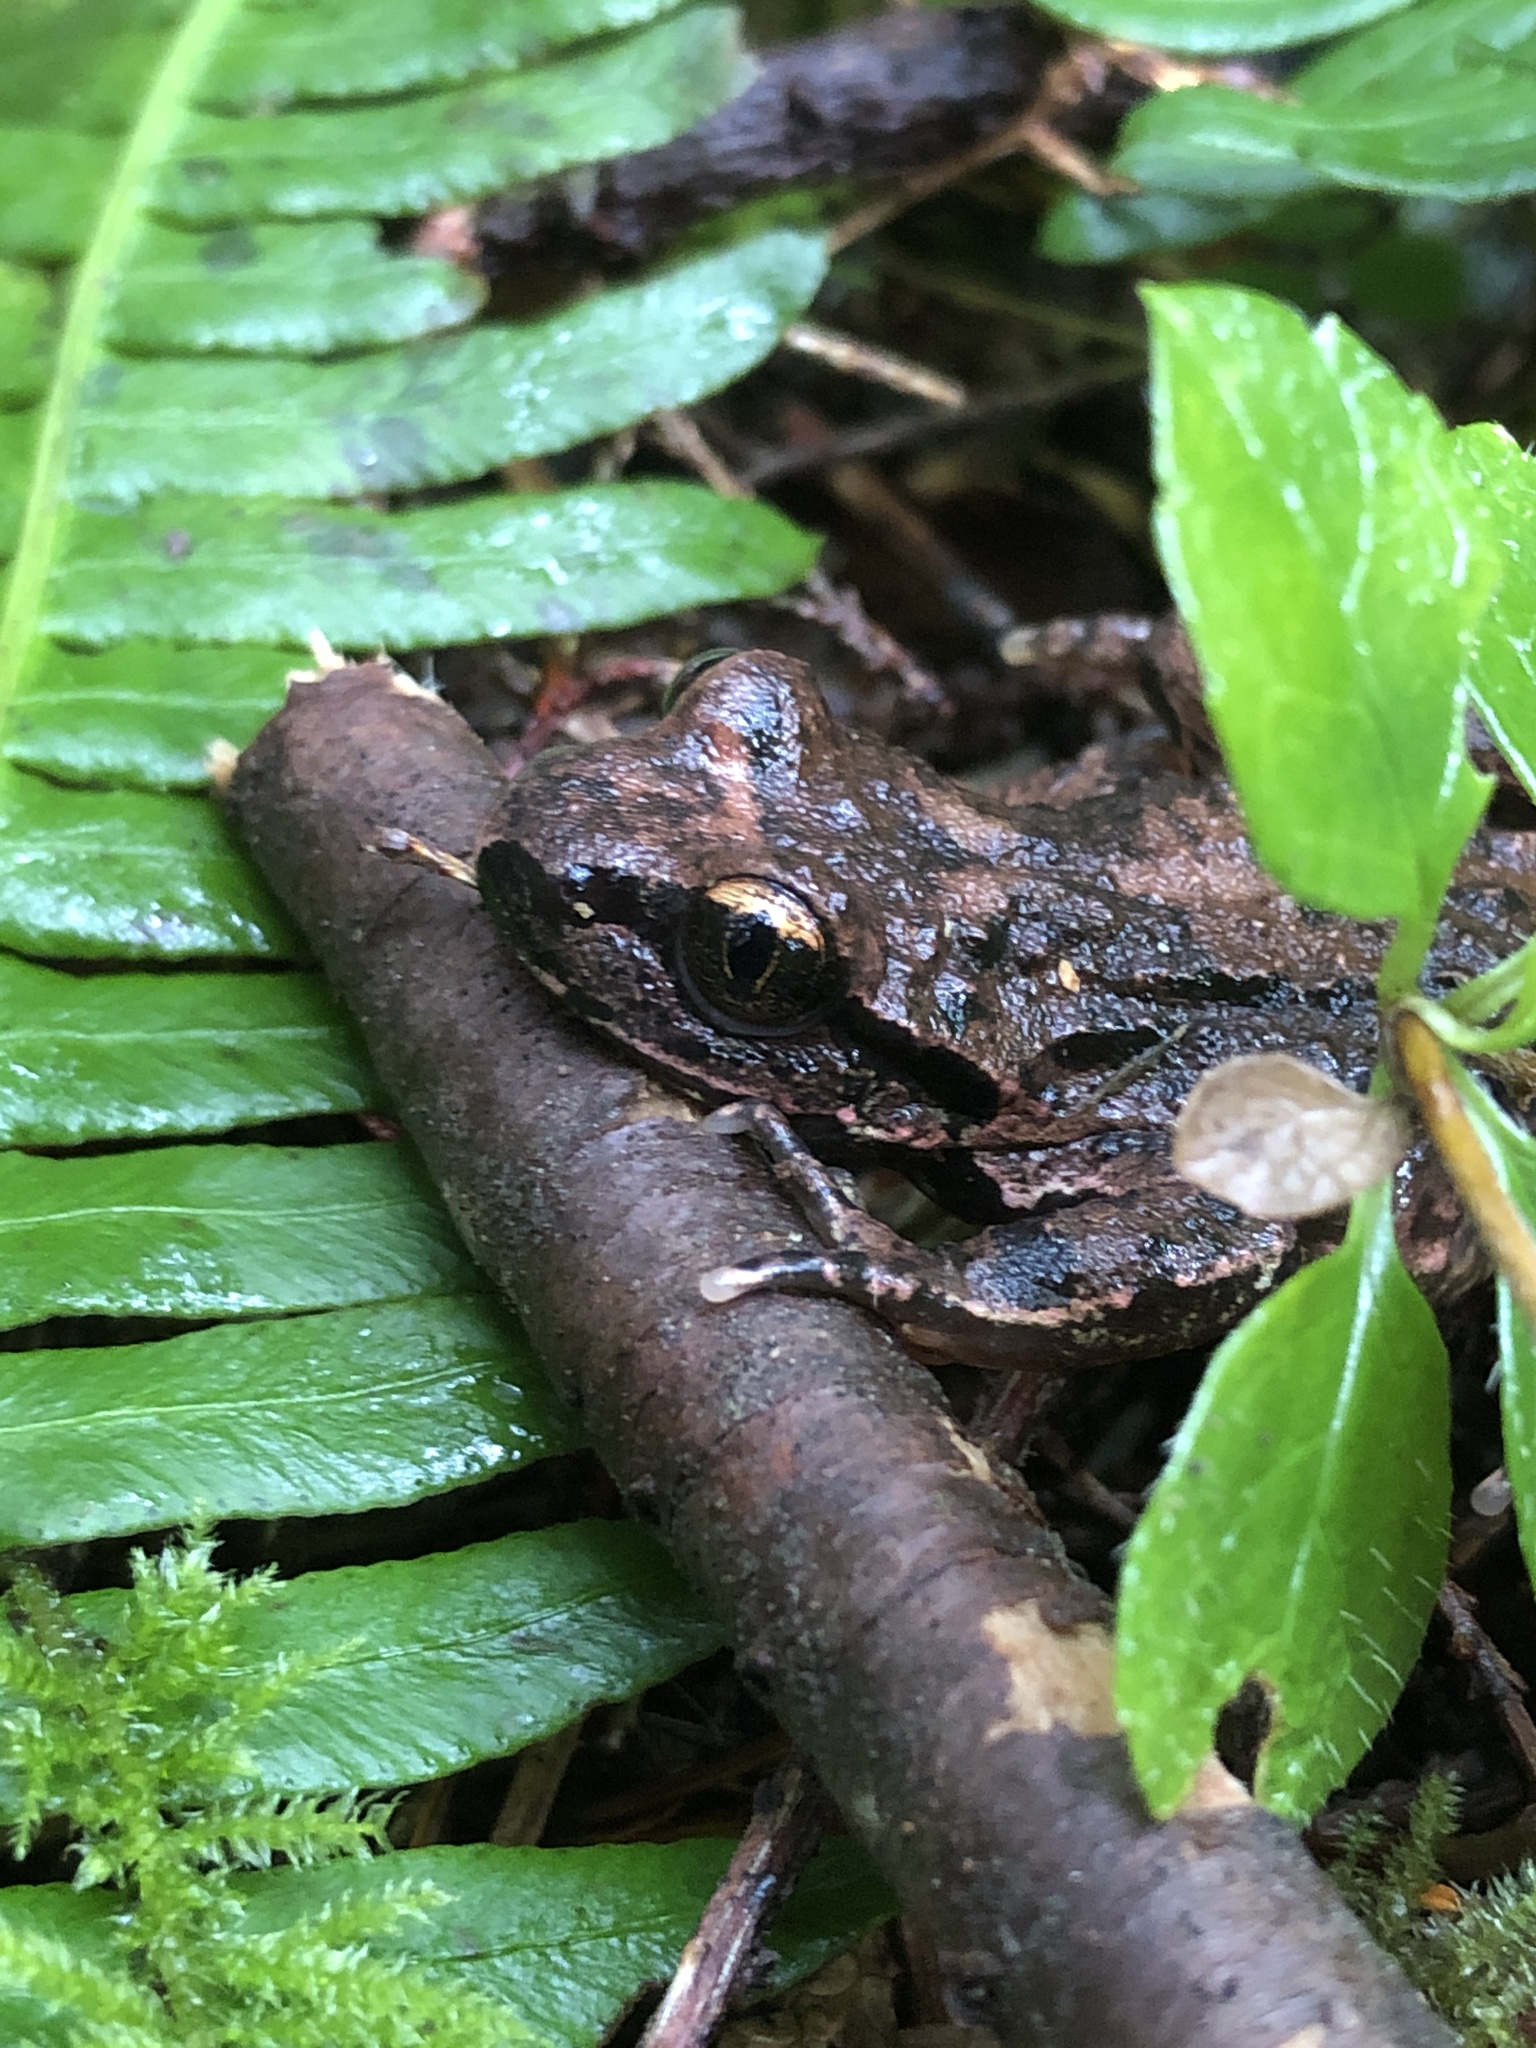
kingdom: Animalia
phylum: Chordata
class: Amphibia
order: Anura
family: Ascaphidae
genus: Ascaphus
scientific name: Ascaphus truei
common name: Tailed frog
